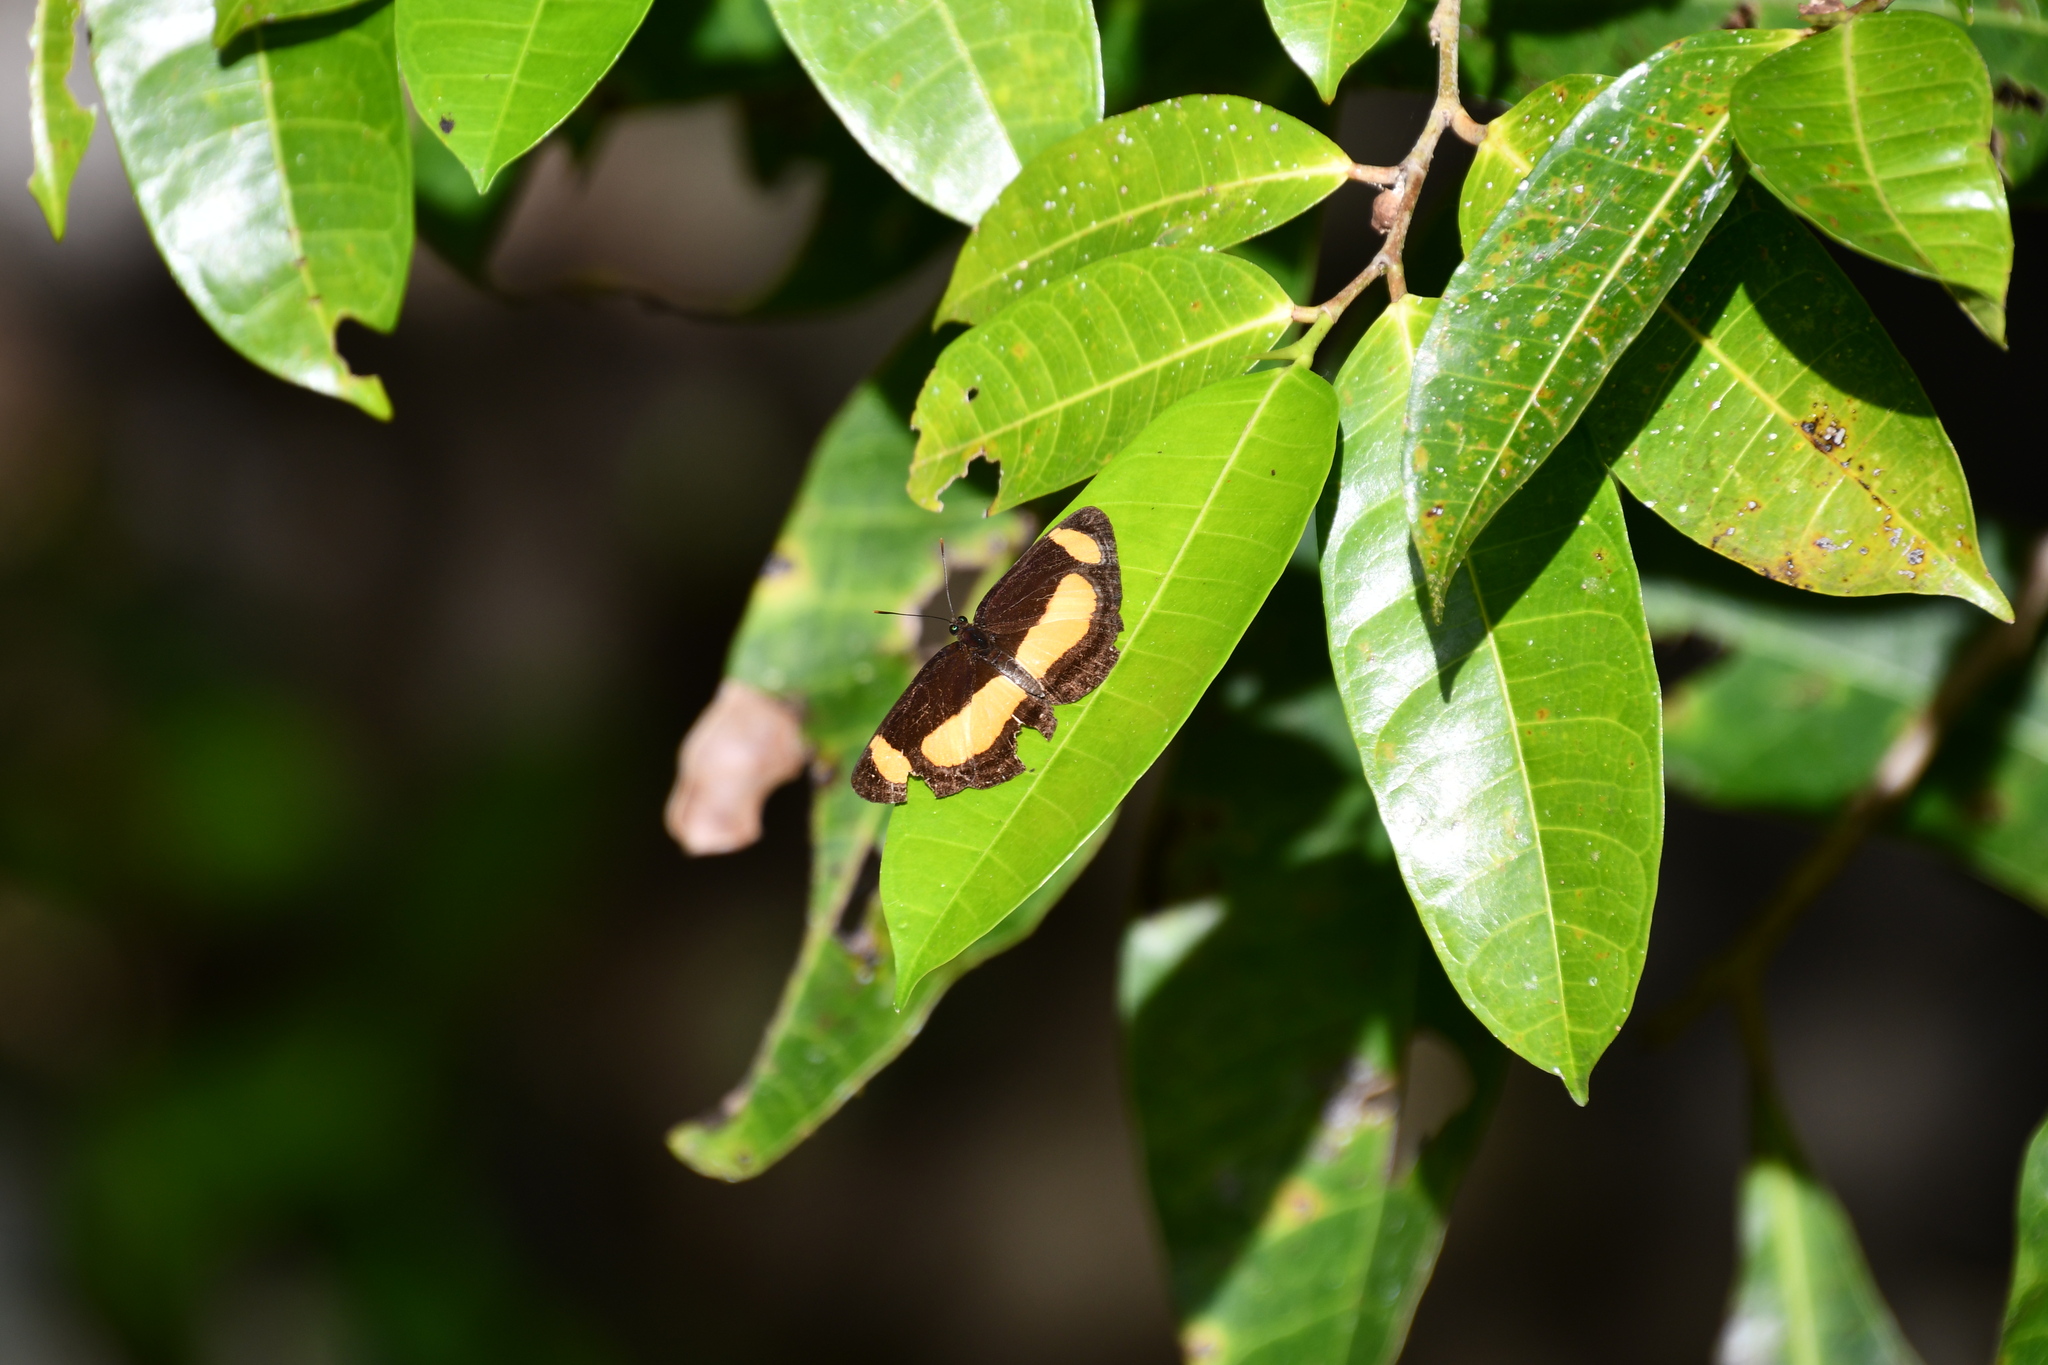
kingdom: Animalia
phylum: Arthropoda
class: Insecta
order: Lepidoptera
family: Nymphalidae
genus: Pantoporia
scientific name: Pantoporia consimilis
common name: Orange plane
